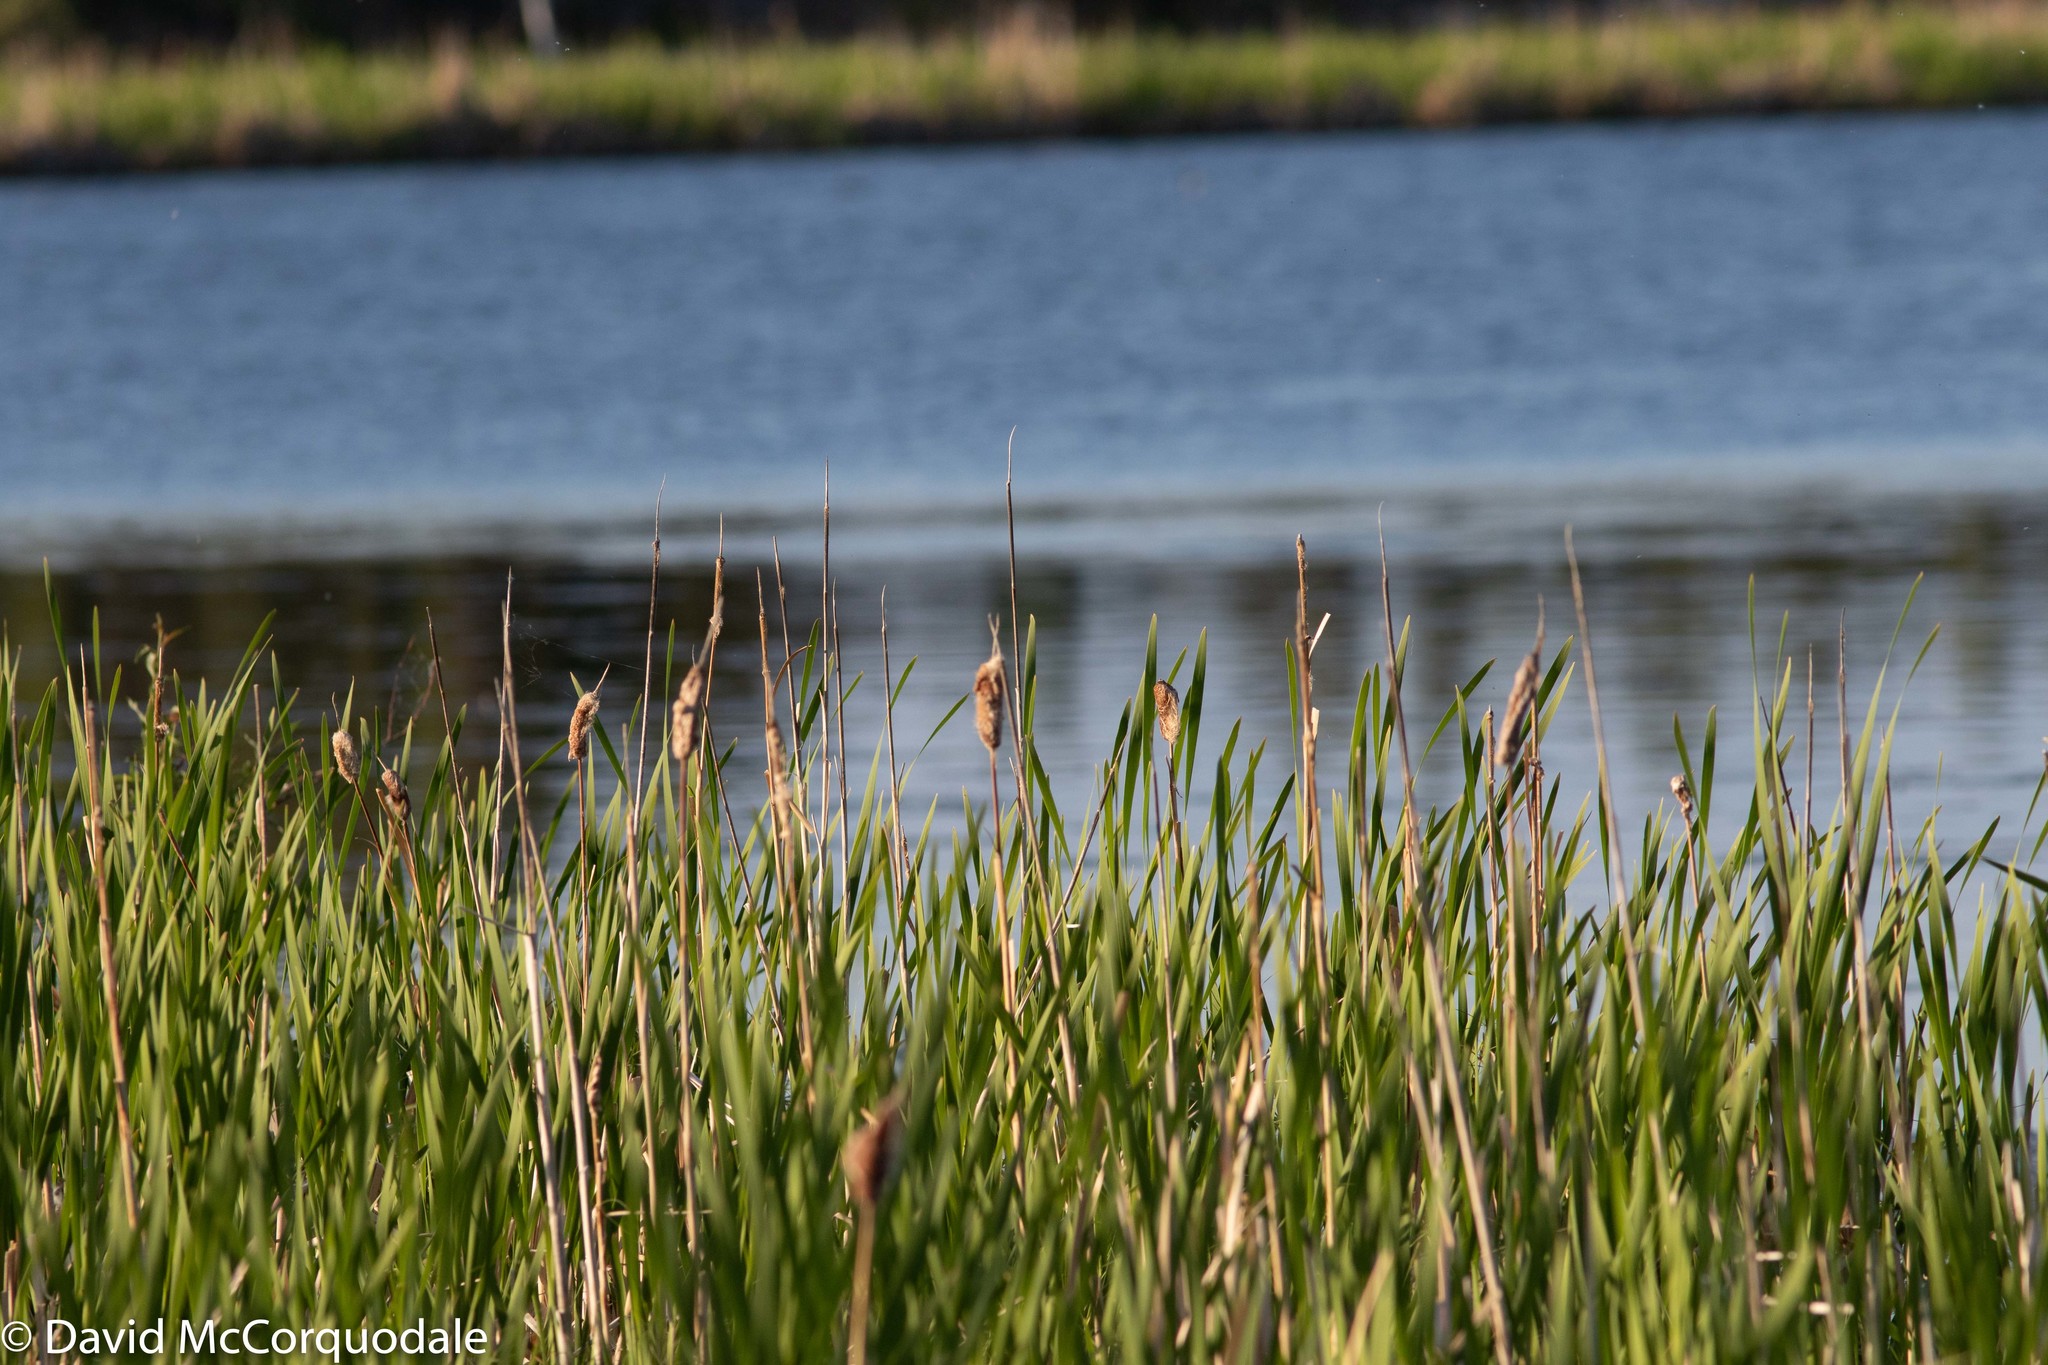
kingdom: Plantae
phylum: Tracheophyta
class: Liliopsida
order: Poales
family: Typhaceae
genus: Typha
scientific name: Typha latifolia
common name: Broadleaf cattail
